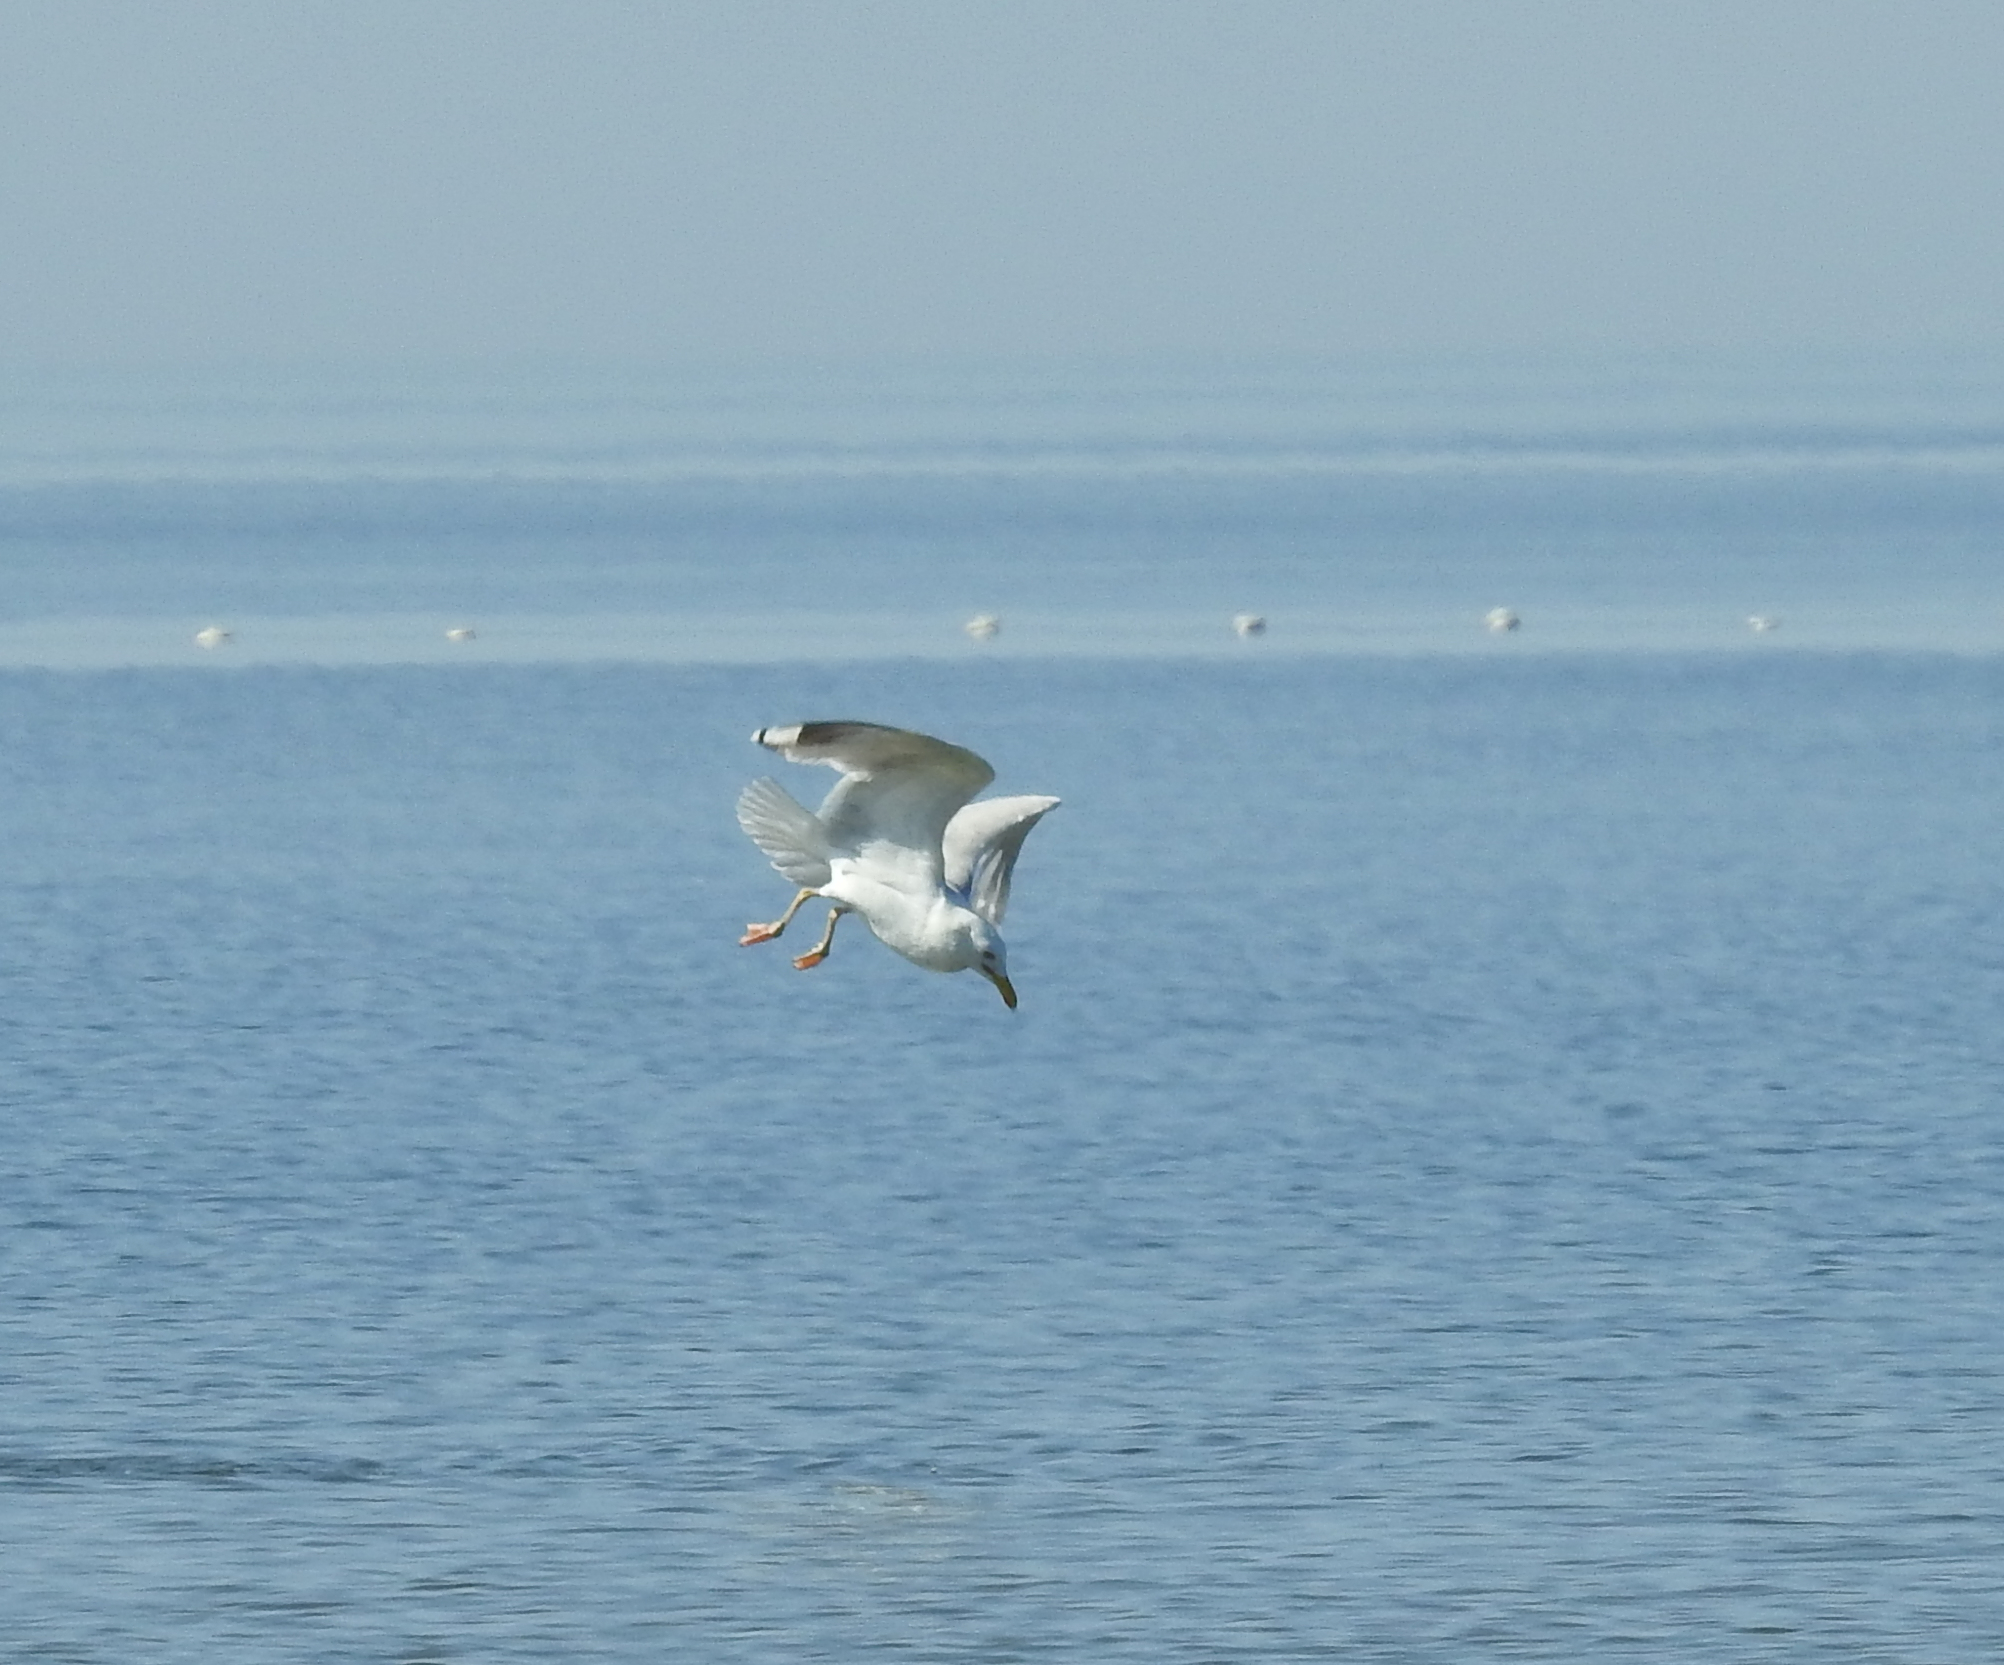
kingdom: Animalia
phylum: Chordata
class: Aves
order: Charadriiformes
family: Laridae
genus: Larus
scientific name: Larus argentatus
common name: Herring gull
